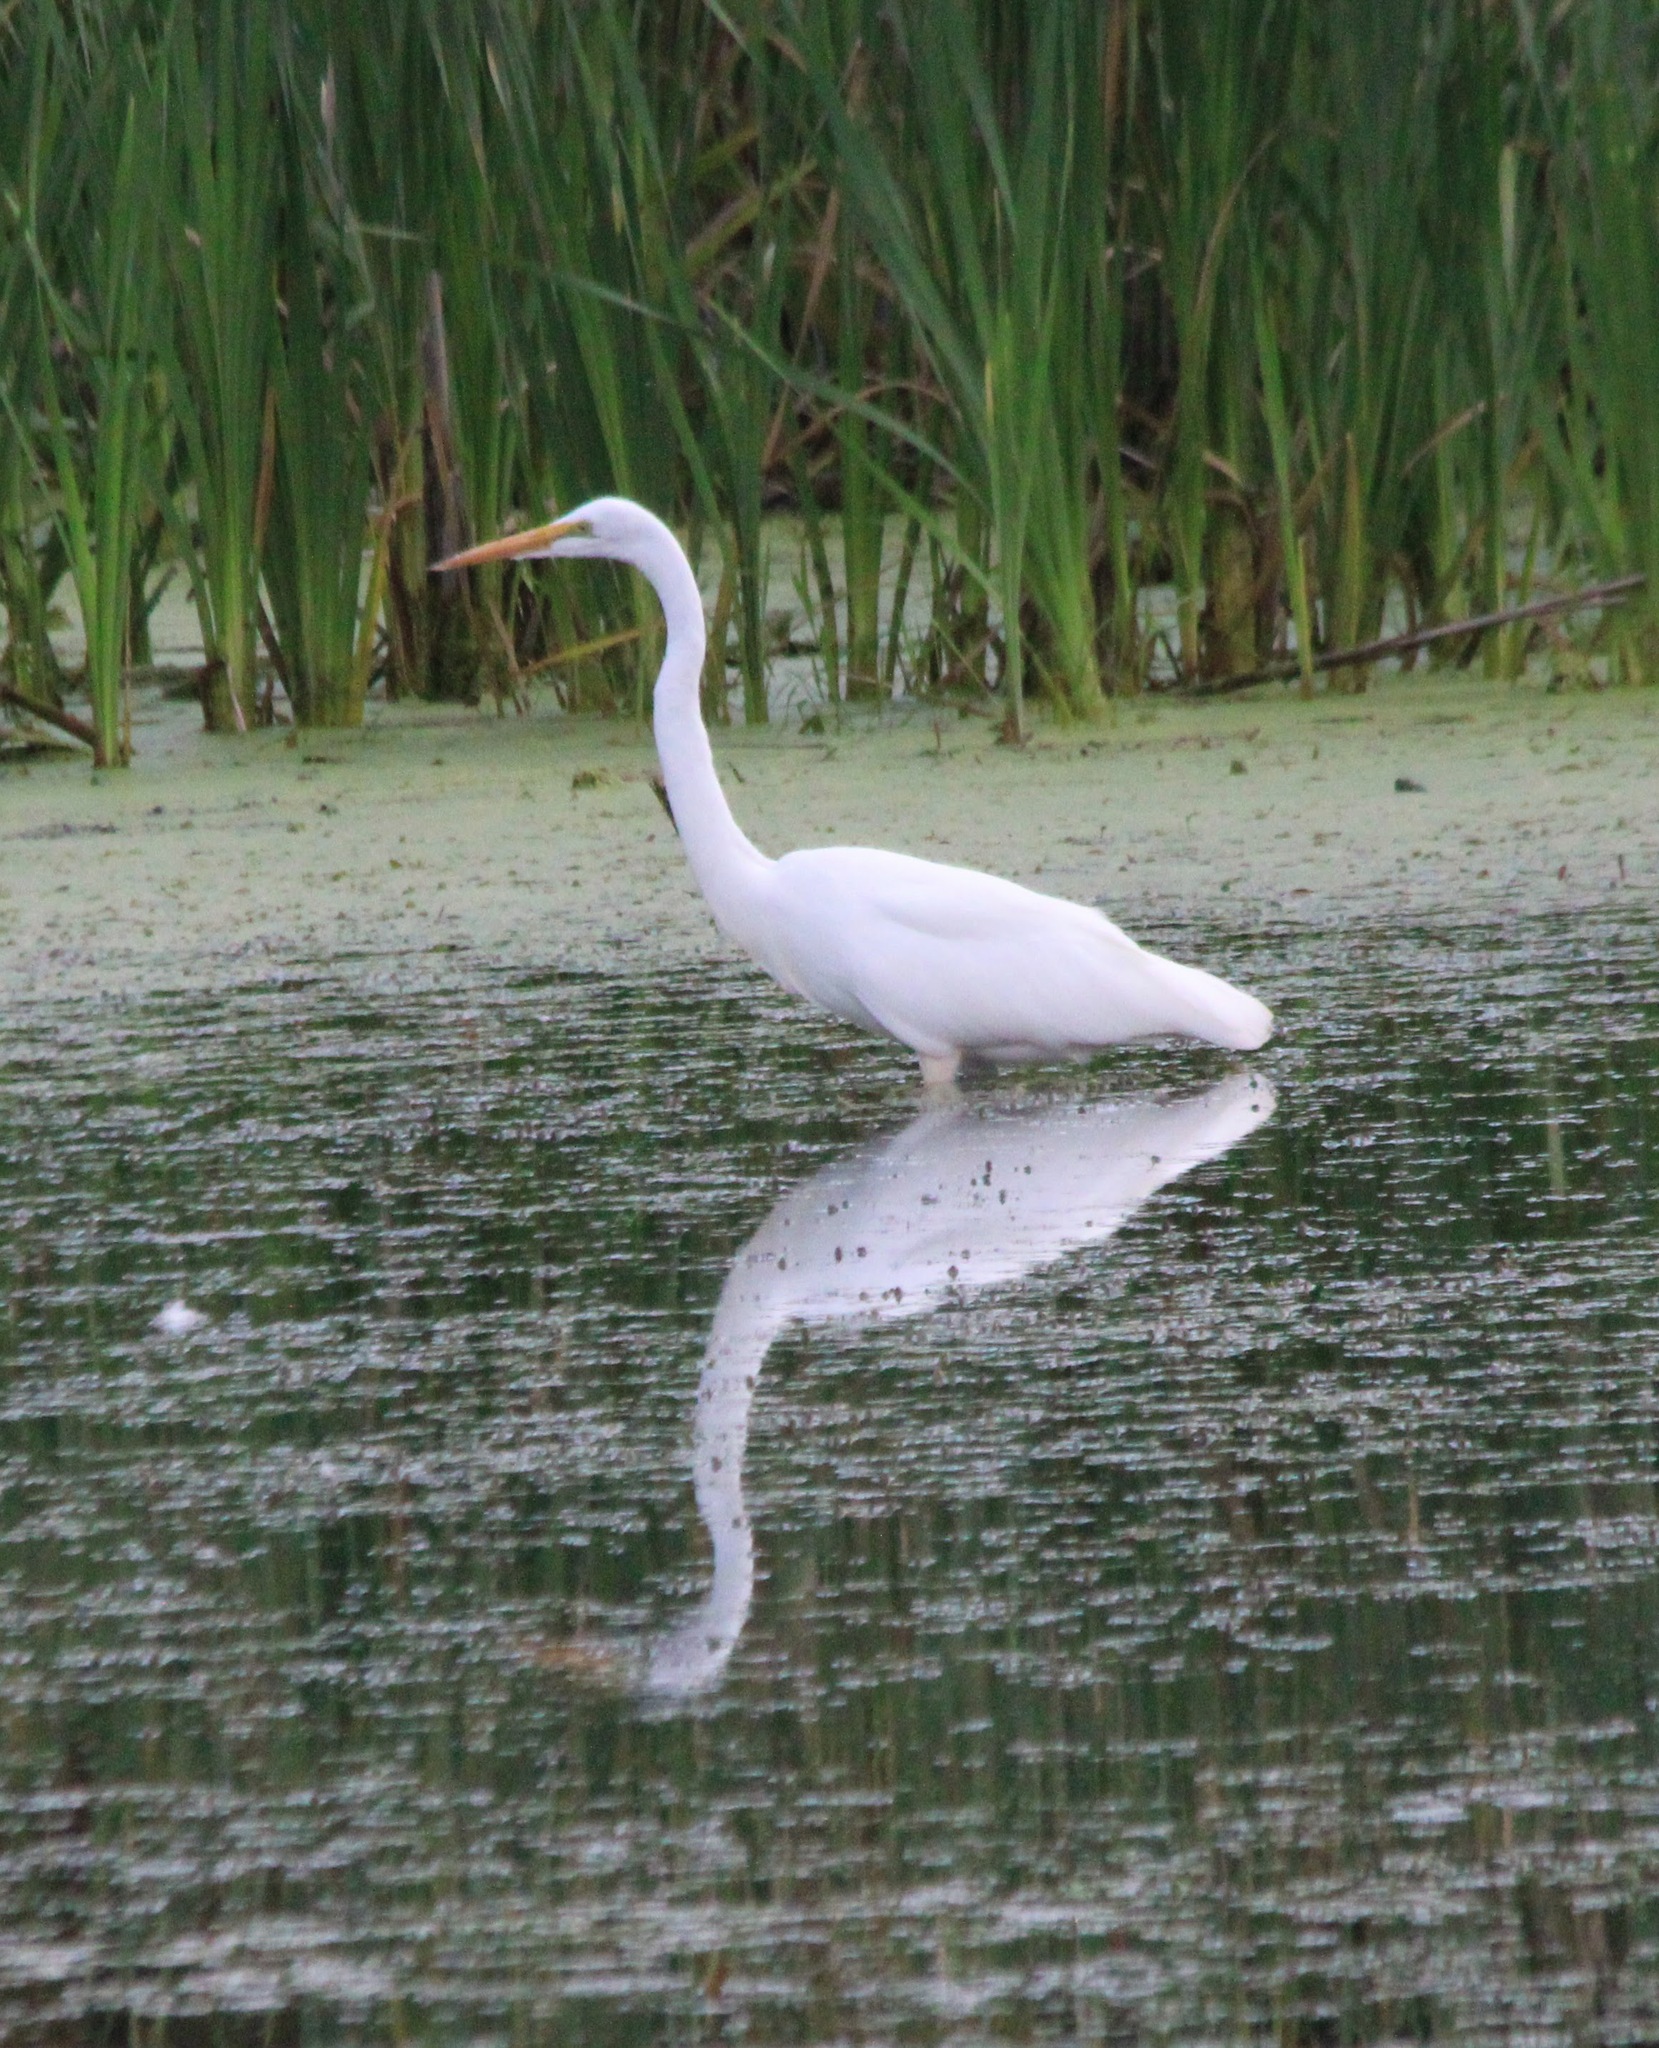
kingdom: Animalia
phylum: Chordata
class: Aves
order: Pelecaniformes
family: Ardeidae
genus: Ardea
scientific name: Ardea alba
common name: Great egret
